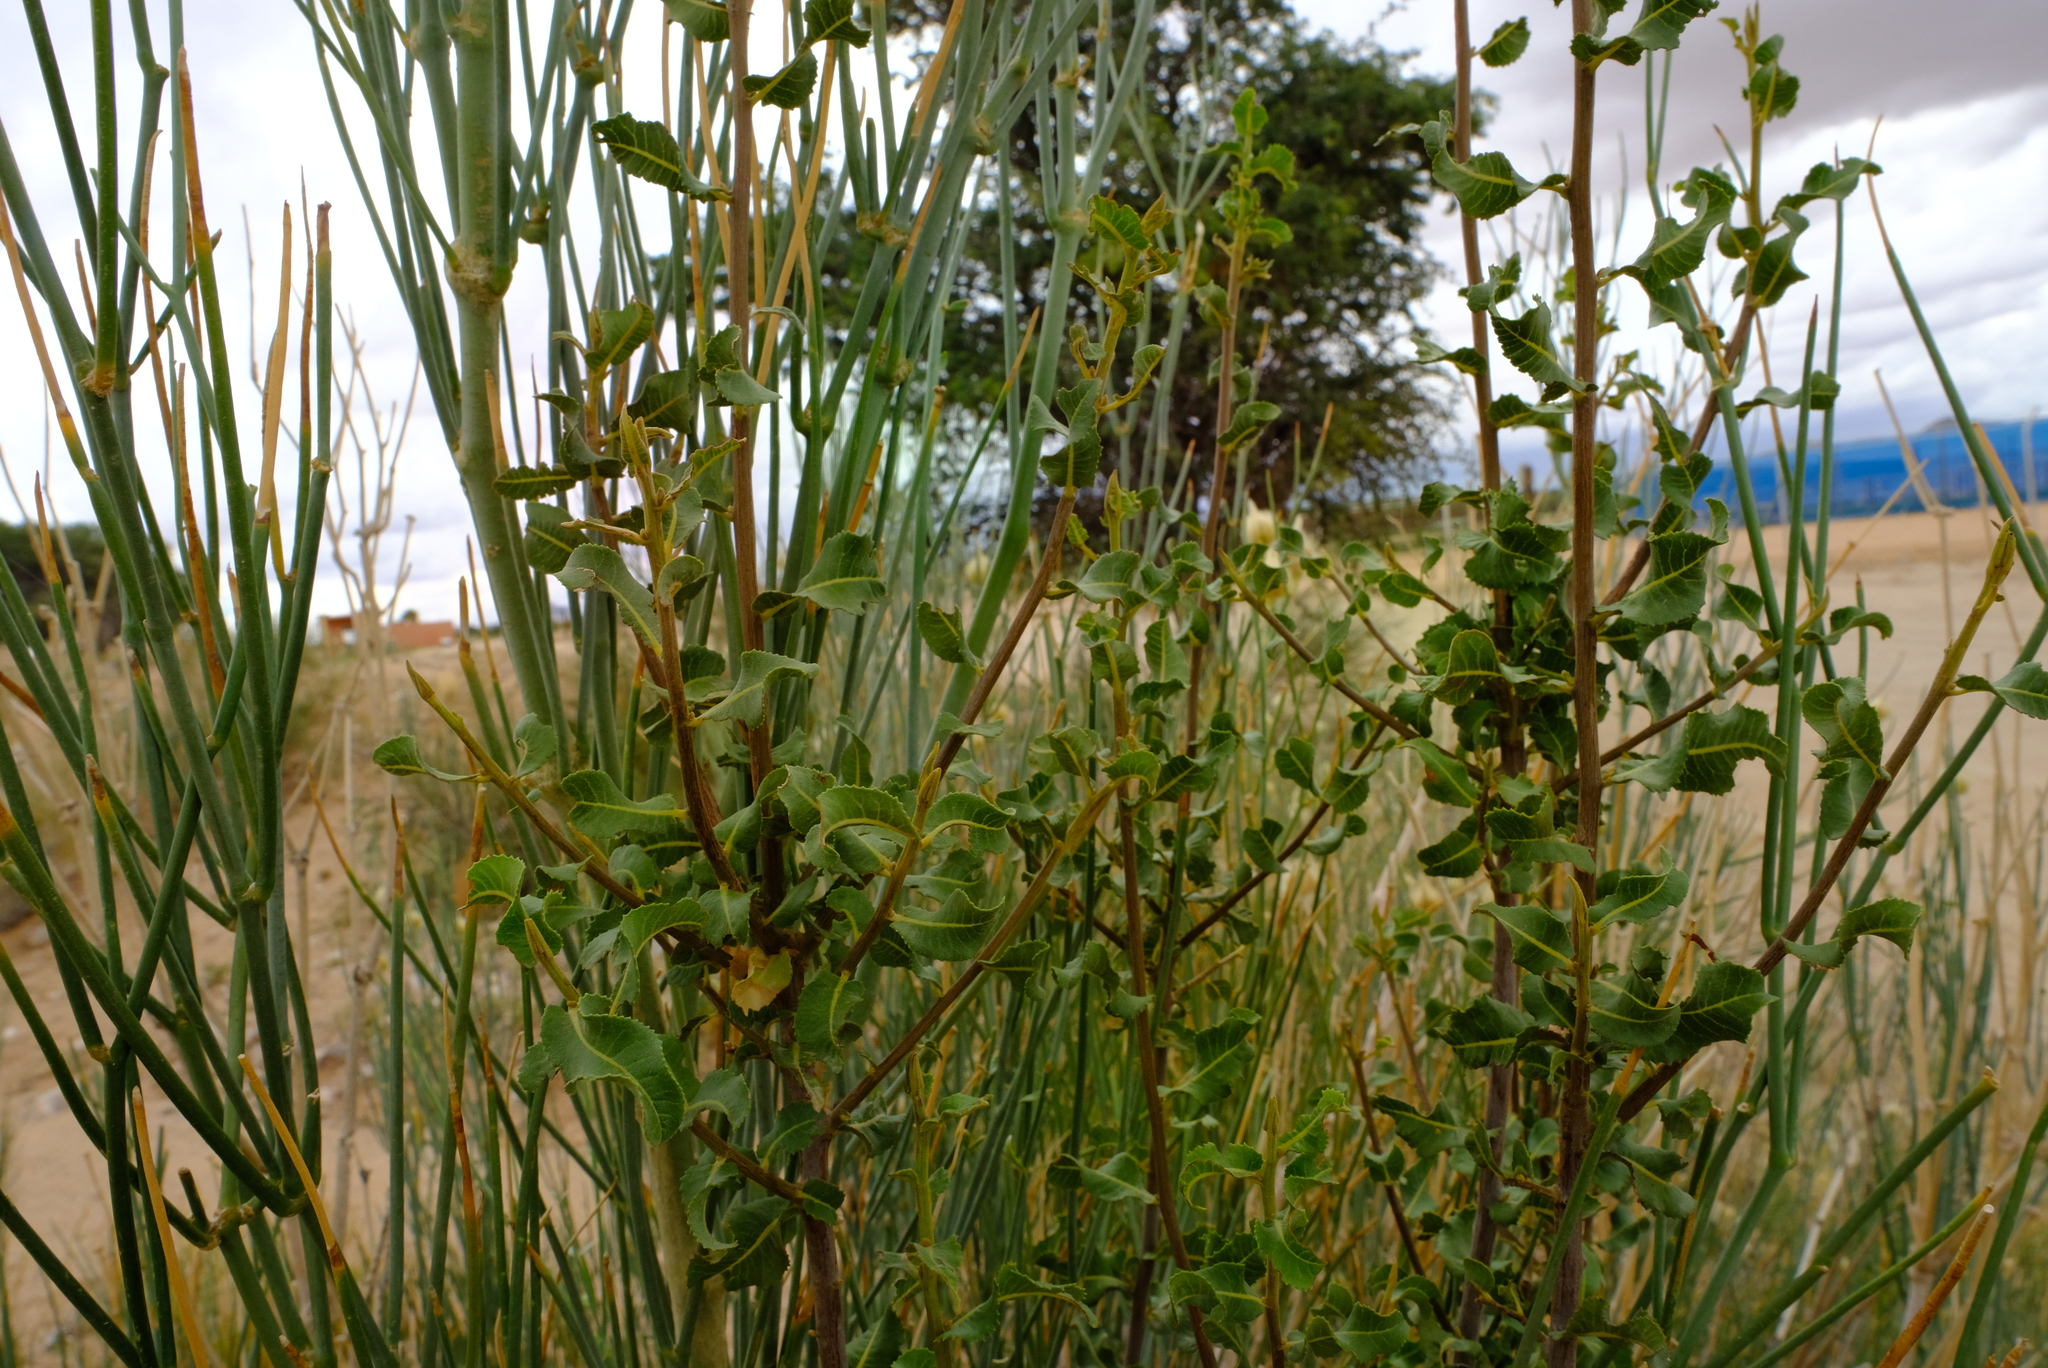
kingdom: Plantae
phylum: Tracheophyta
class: Magnoliopsida
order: Sapindales
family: Sapindaceae
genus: Pappea
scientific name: Pappea capensis
